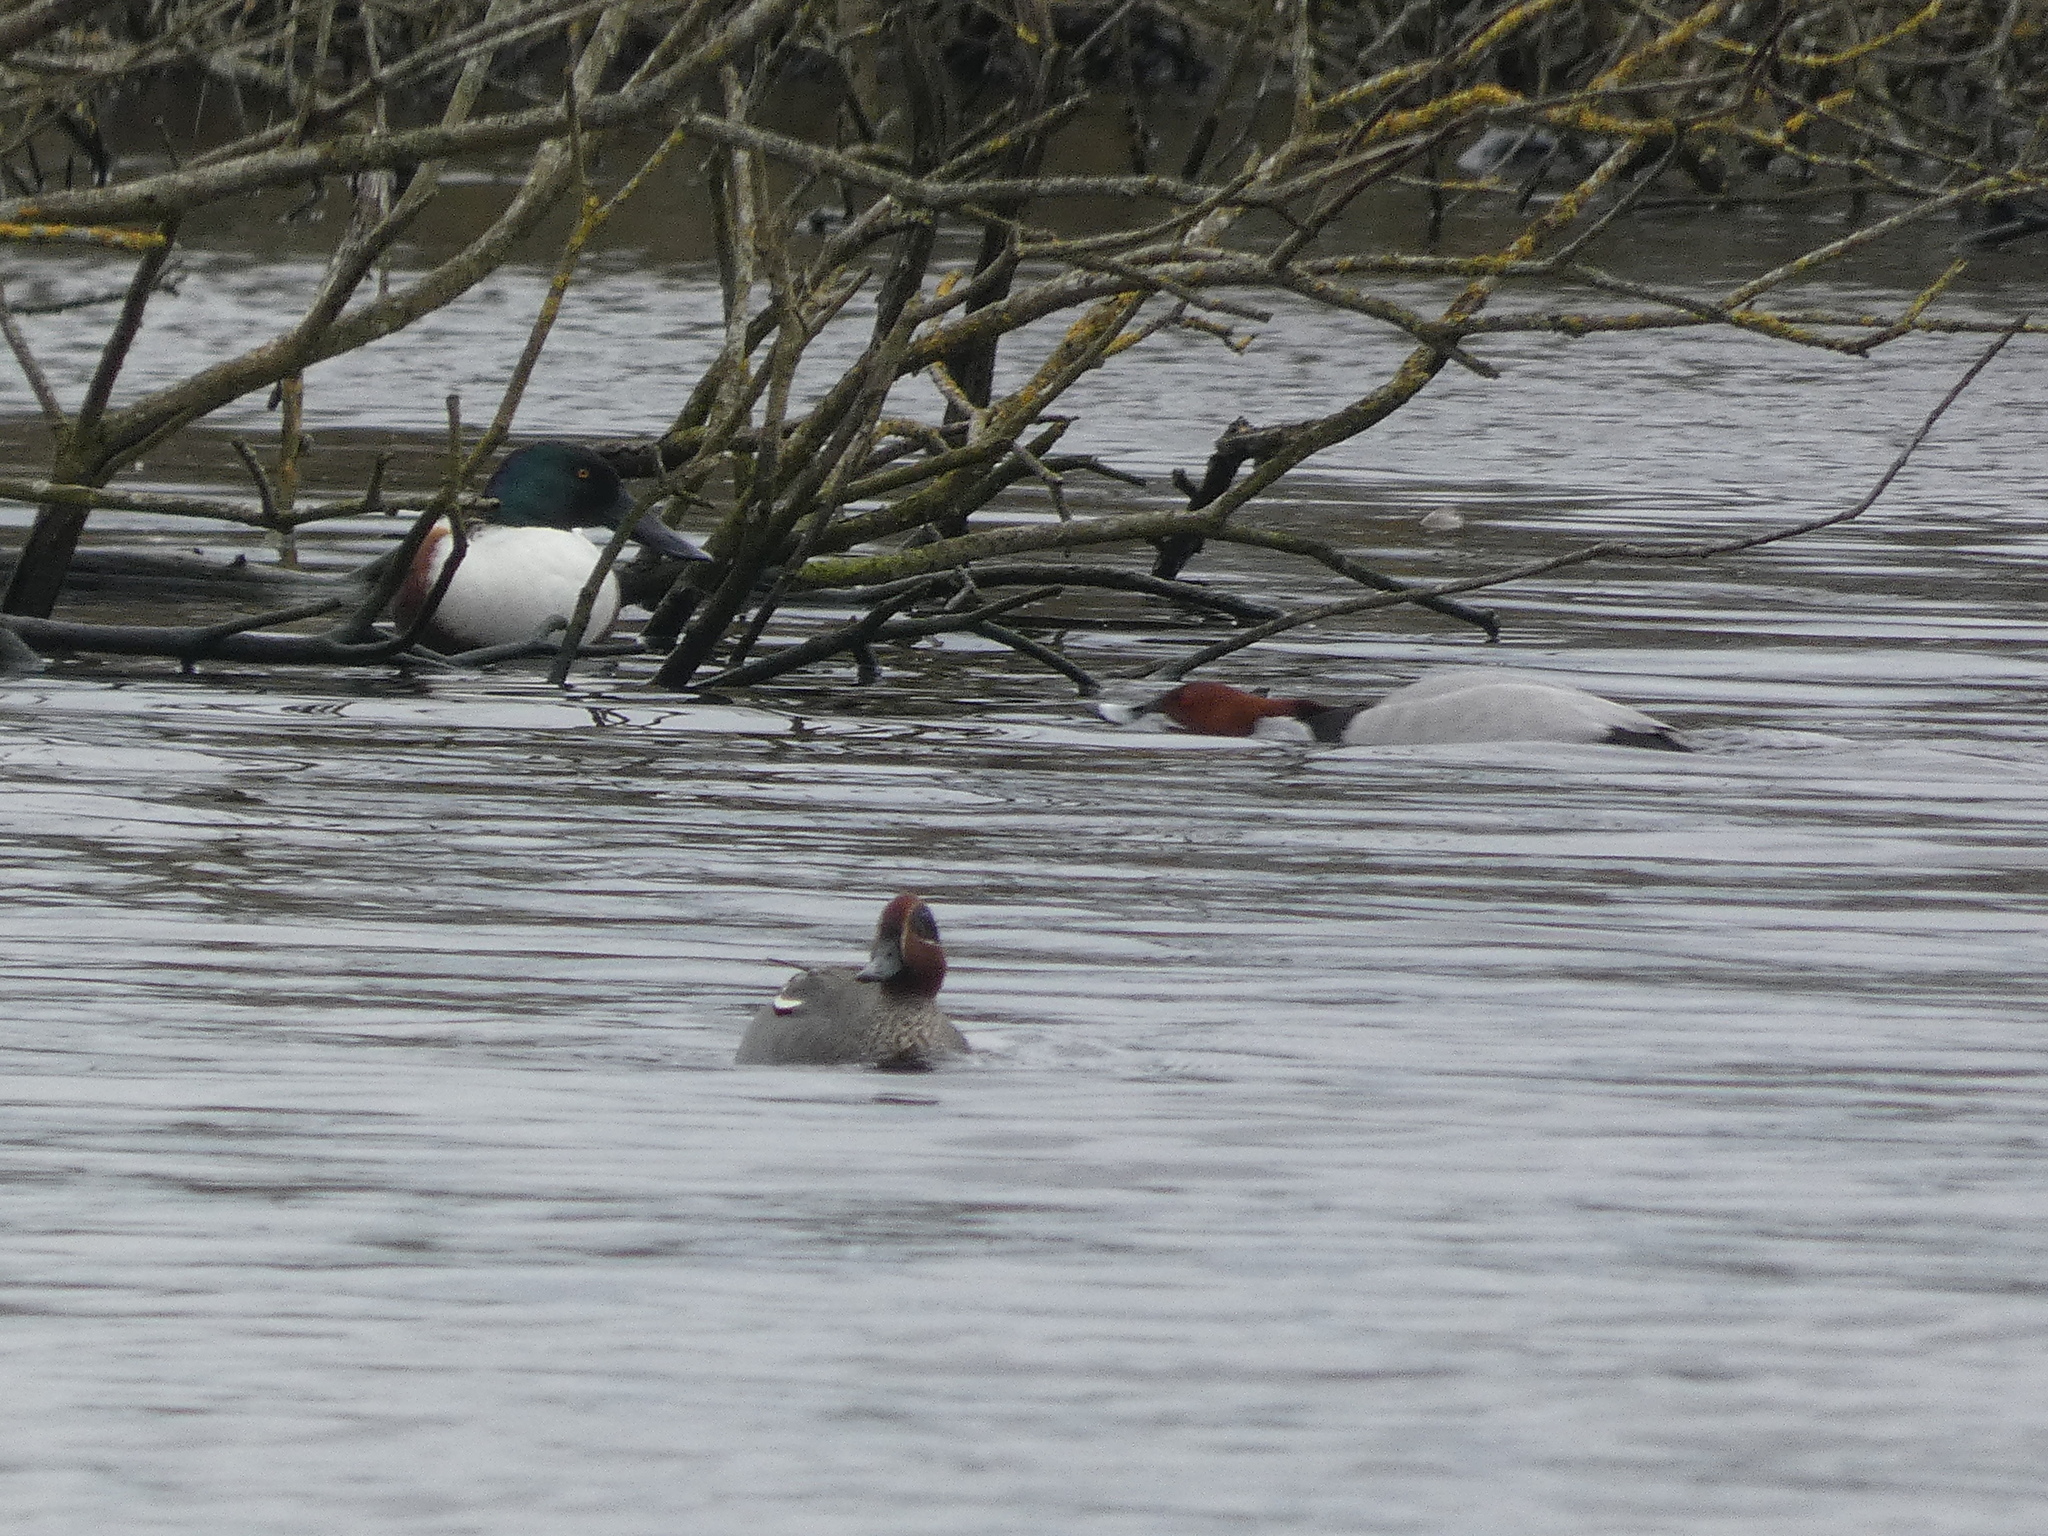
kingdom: Animalia
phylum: Chordata
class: Aves
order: Anseriformes
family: Anatidae
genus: Aythya
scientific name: Aythya ferina
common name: Common pochard
